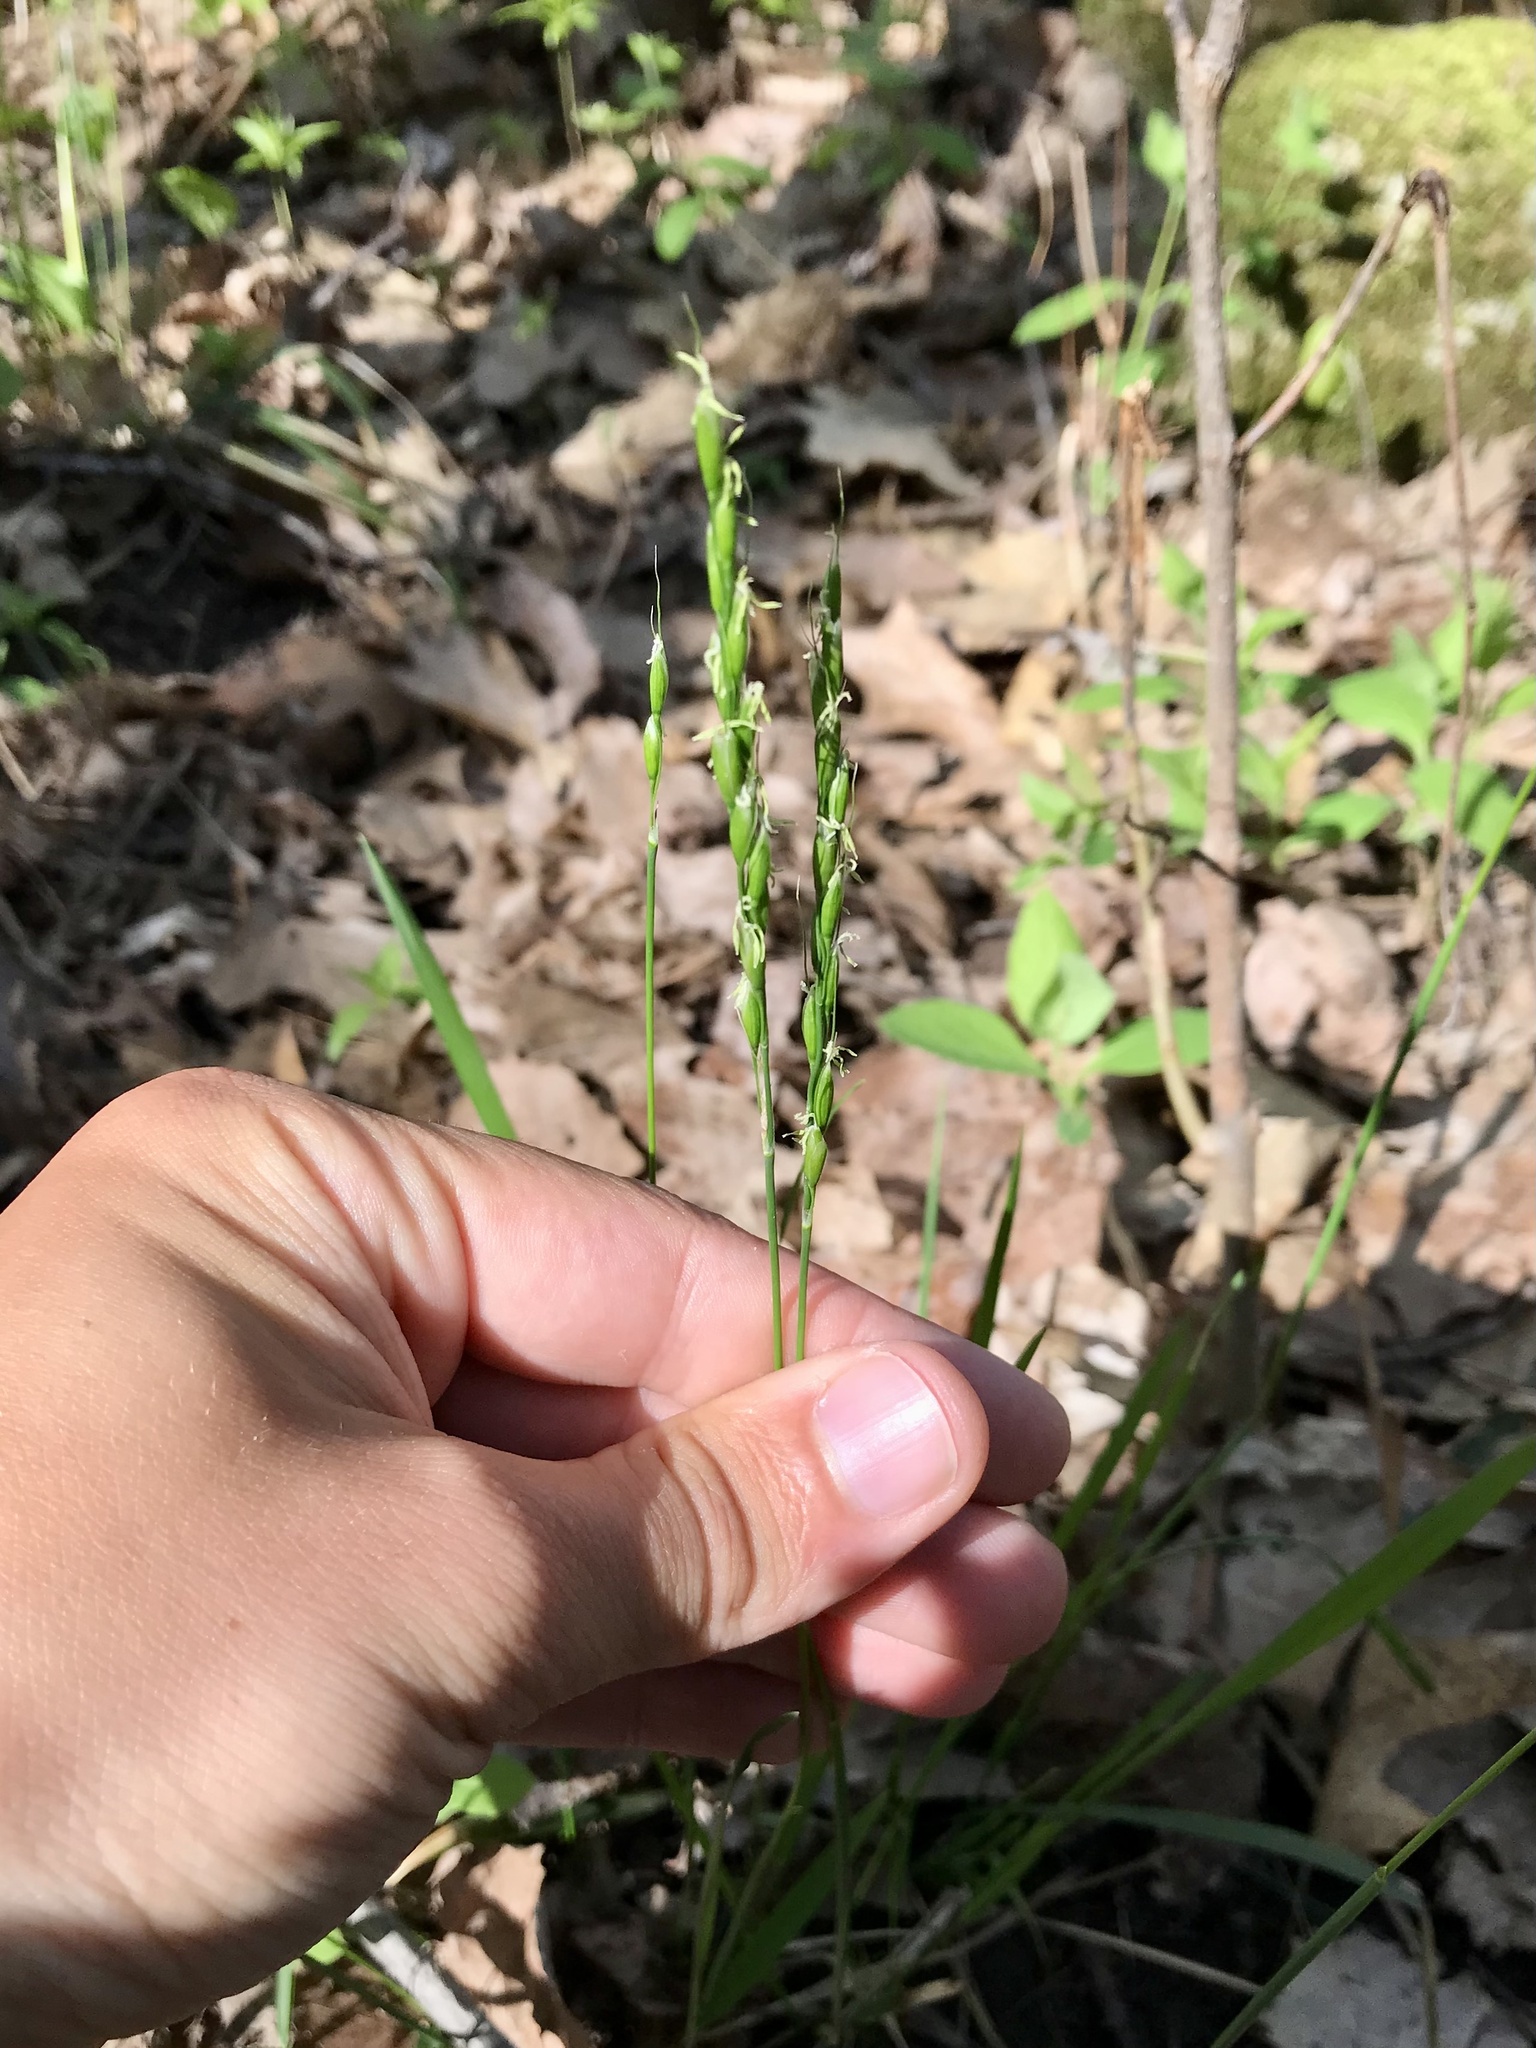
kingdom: Plantae
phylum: Tracheophyta
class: Liliopsida
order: Poales
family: Poaceae
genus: Oryzopsis
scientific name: Oryzopsis asperifolia
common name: Rough-leaved mountain rice
